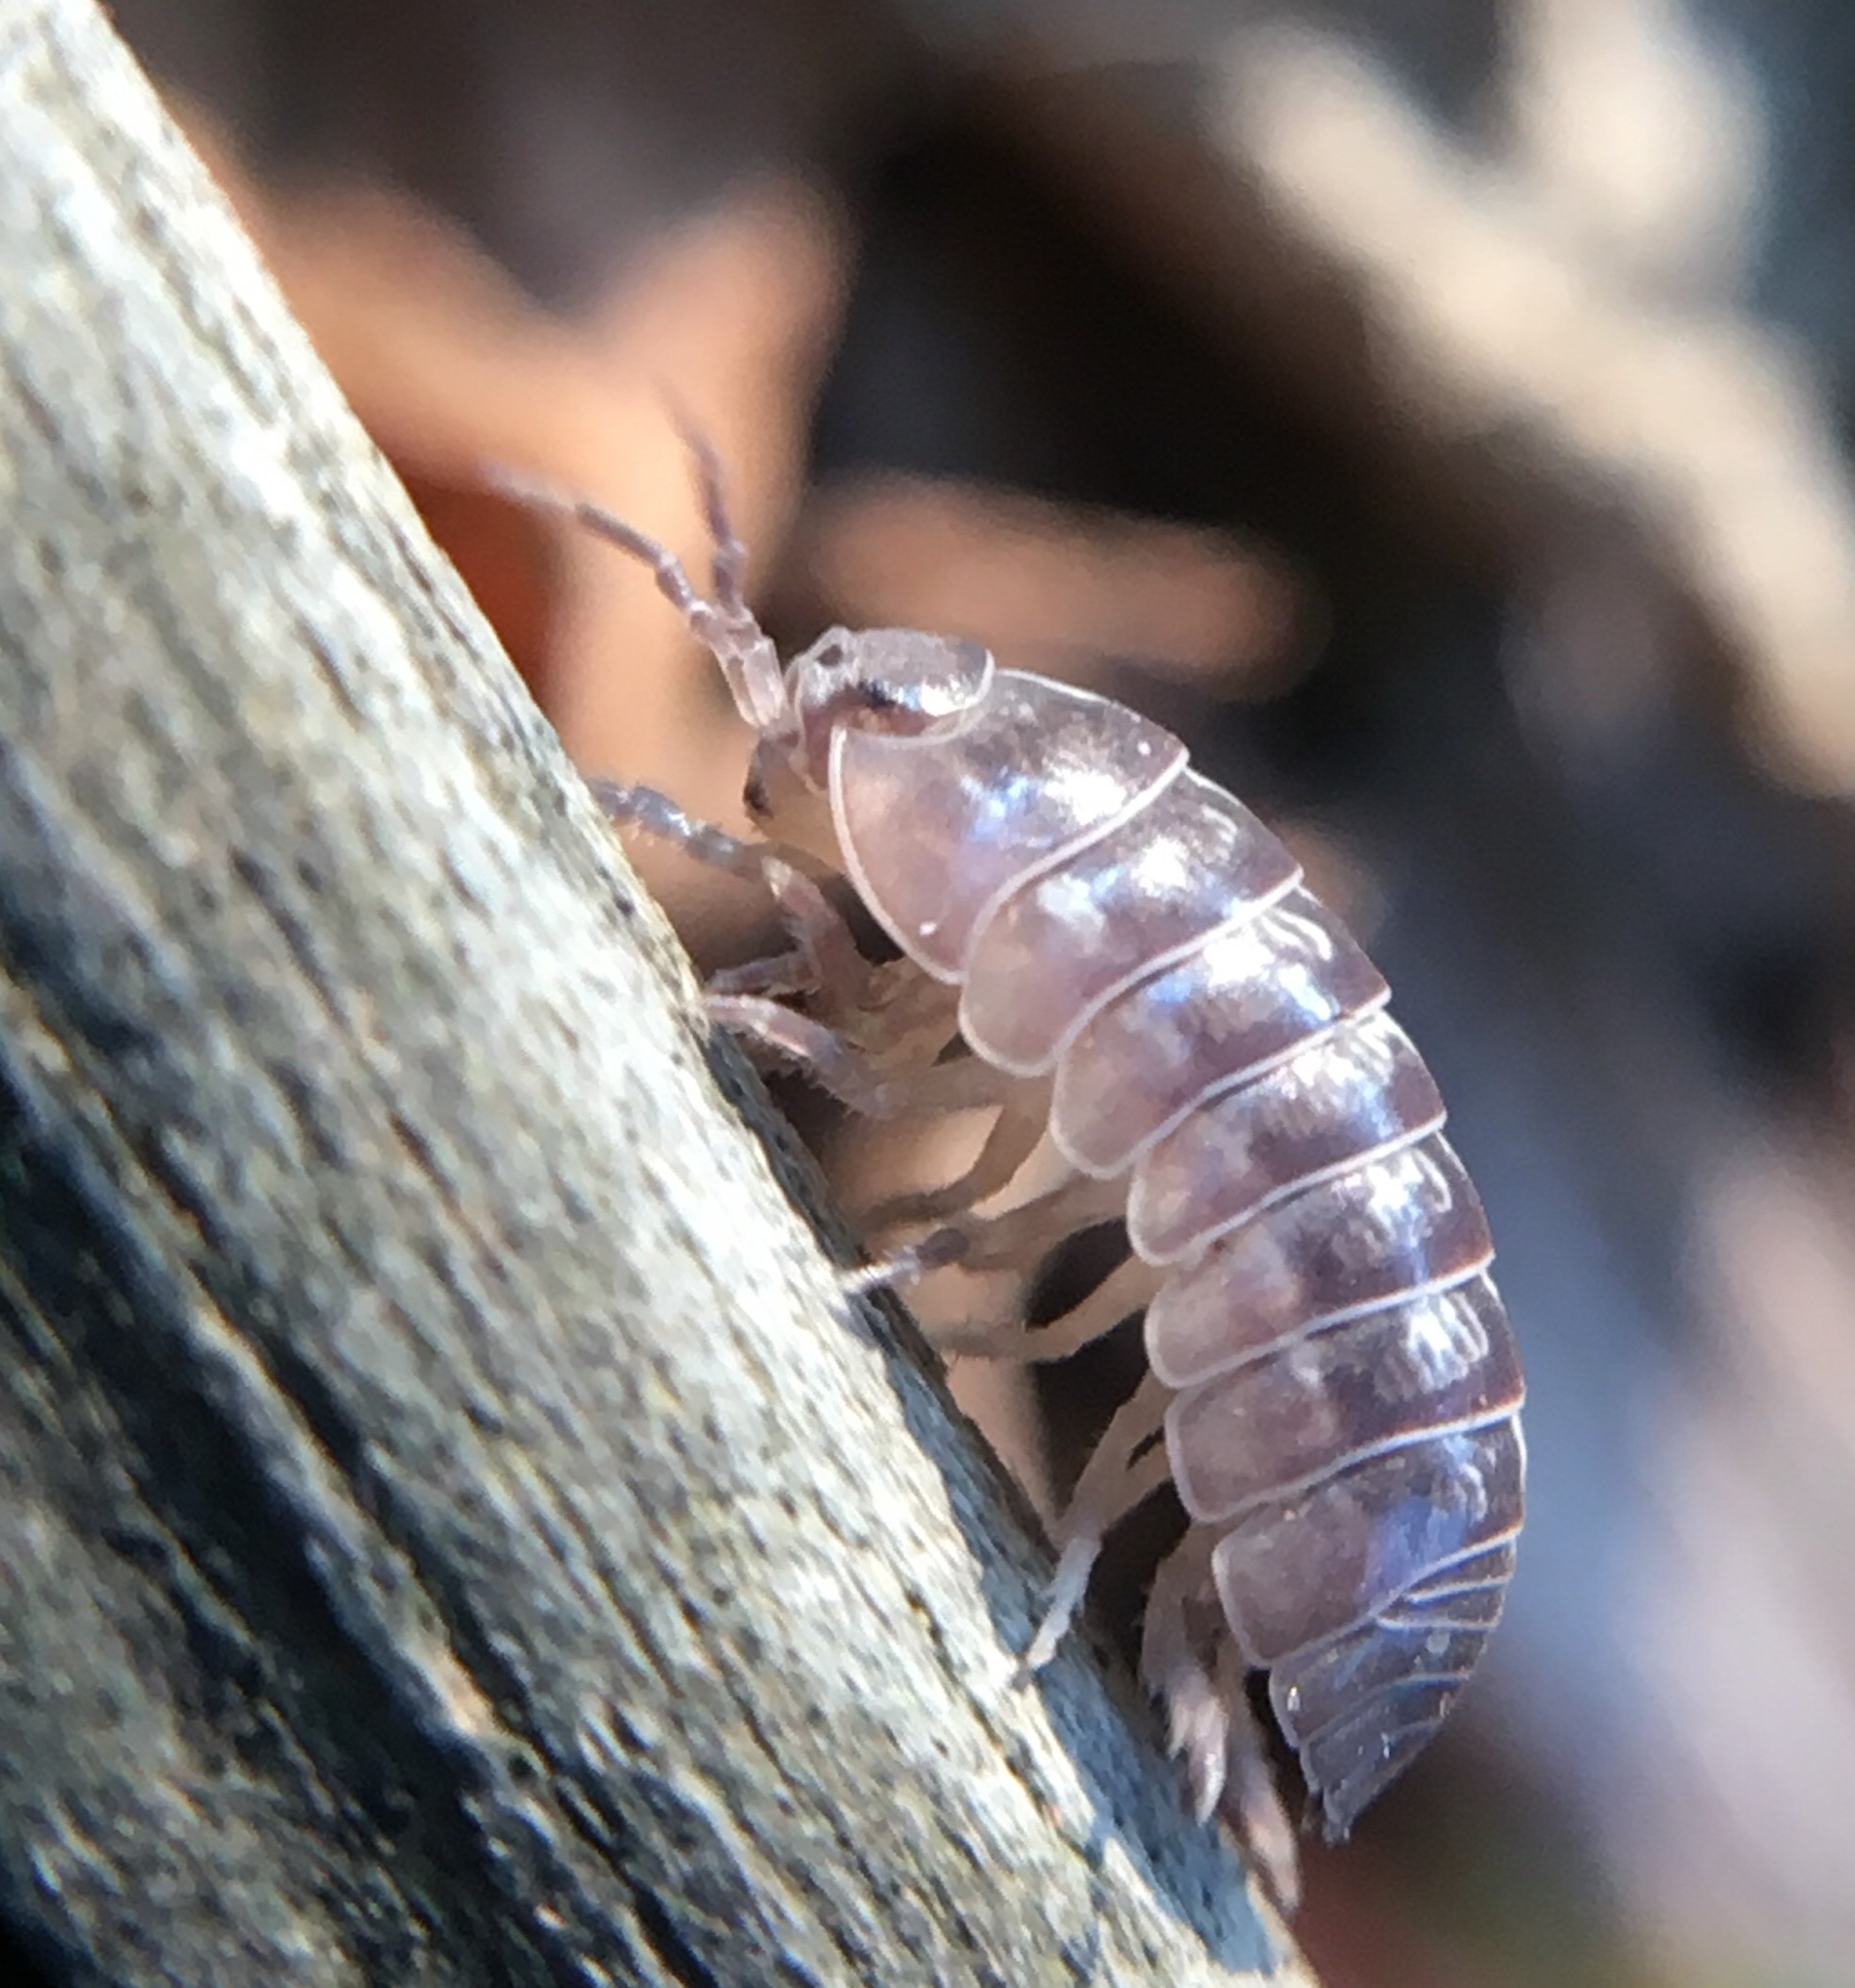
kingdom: Animalia
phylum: Arthropoda
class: Malacostraca
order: Isopoda
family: Armadillidiidae
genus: Armadillidium
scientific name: Armadillidium vulgare
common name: Common pill woodlouse
